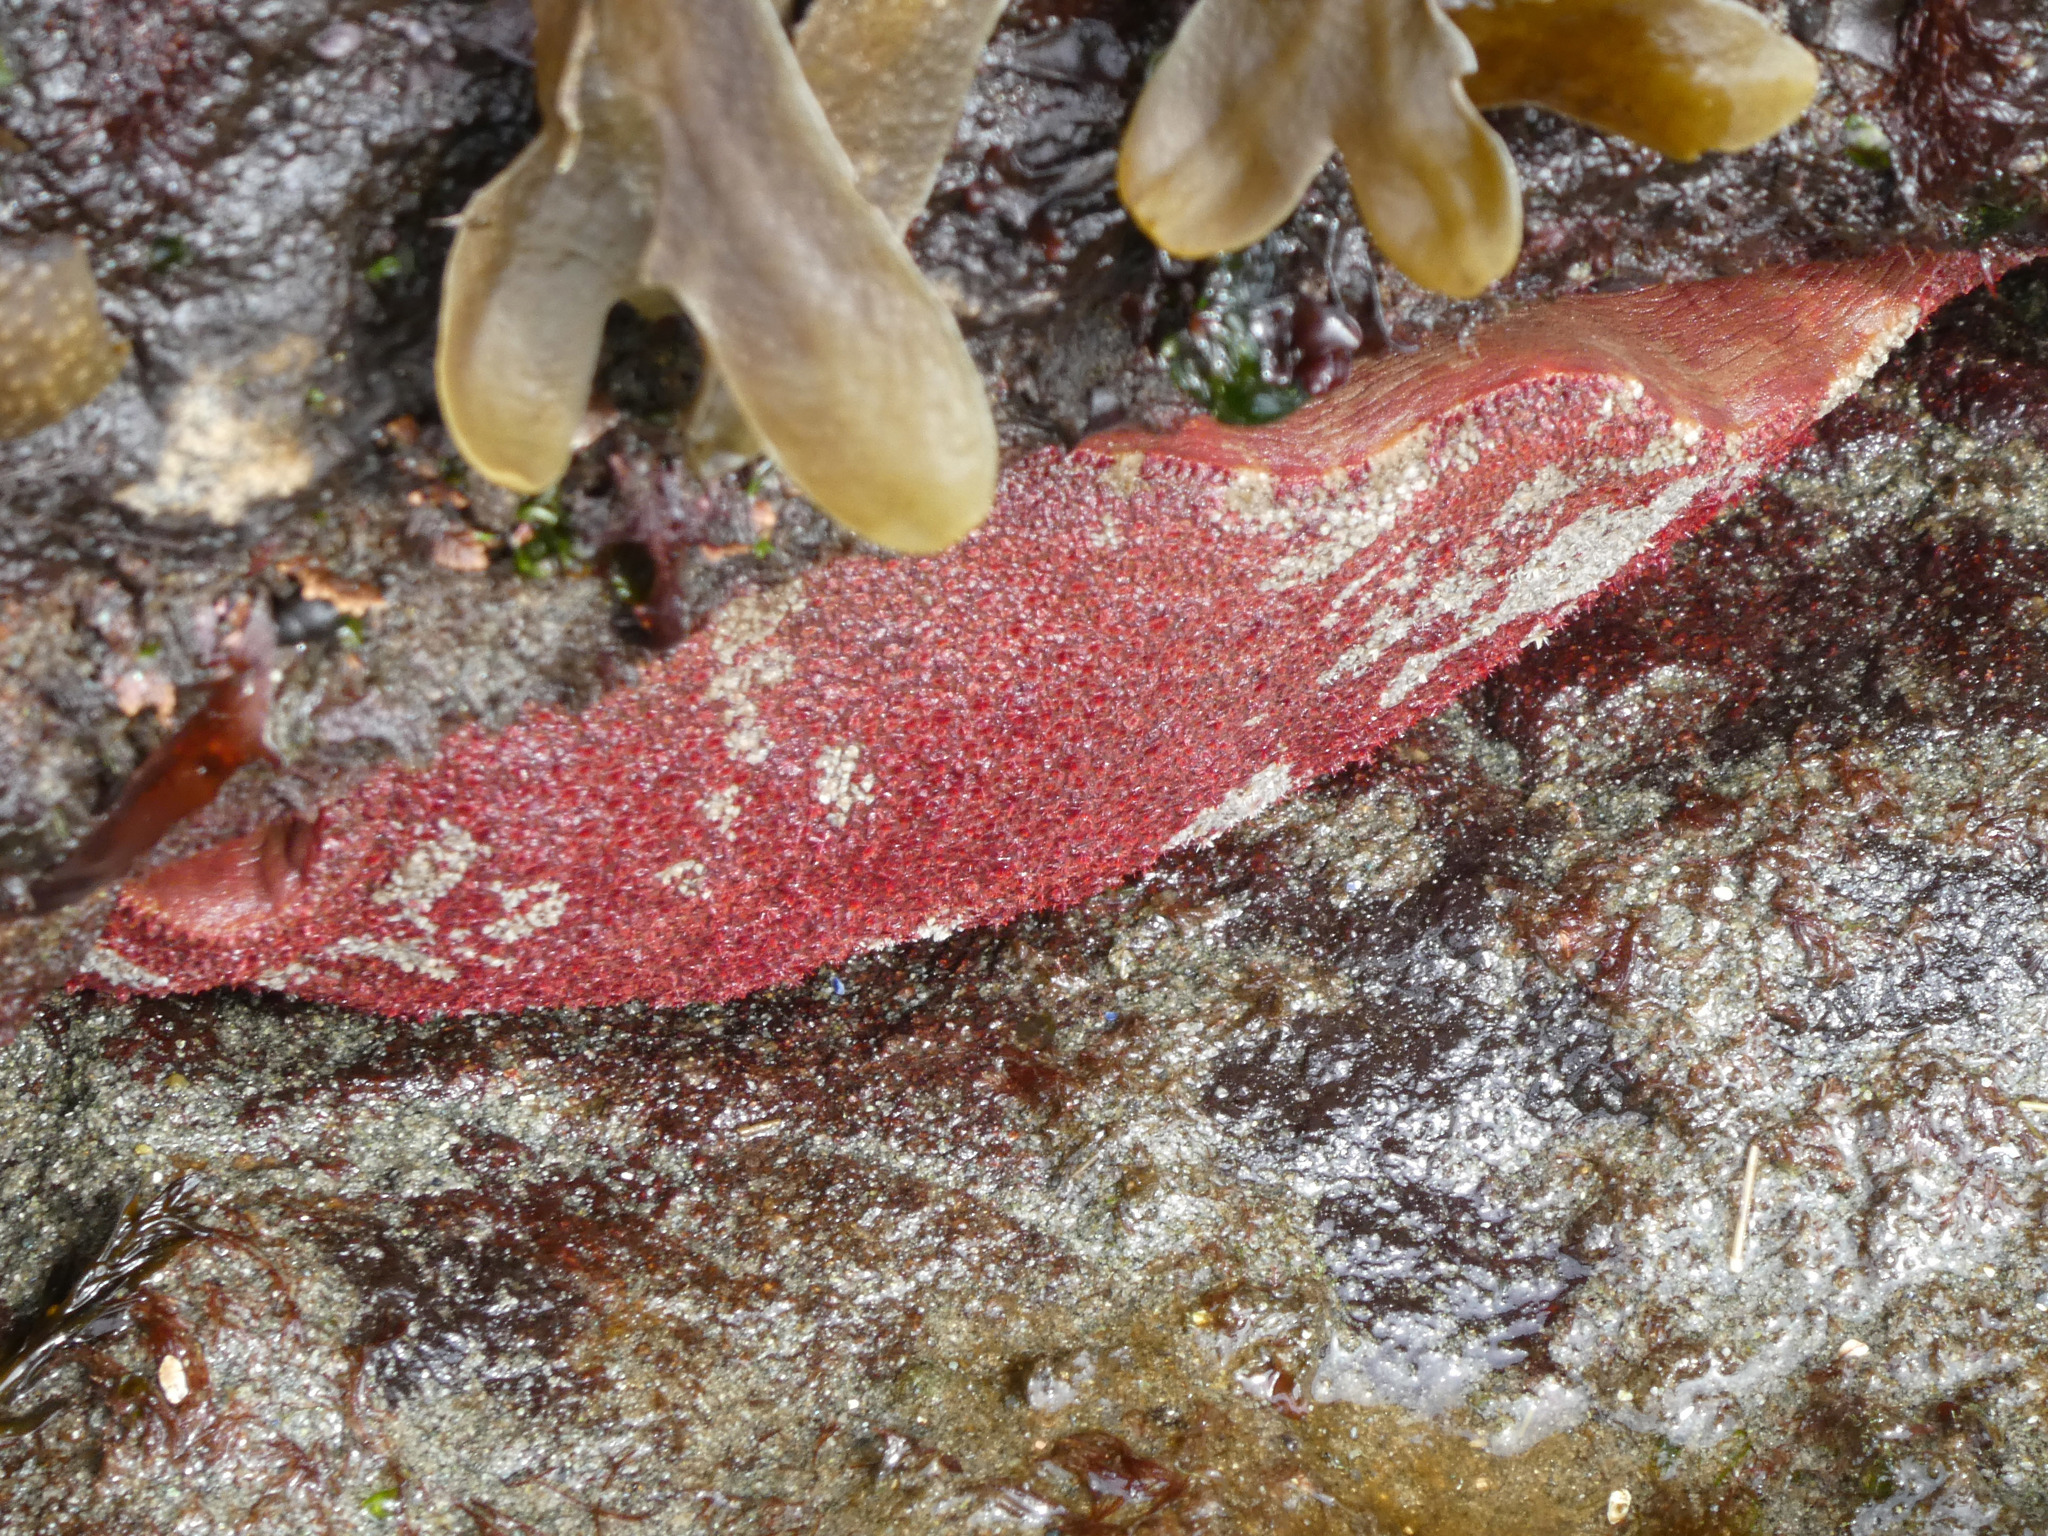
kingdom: Animalia
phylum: Mollusca
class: Polyplacophora
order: Chitonida
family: Acanthochitonidae
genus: Cryptochiton
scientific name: Cryptochiton stelleri
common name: Giant pacific chiton
